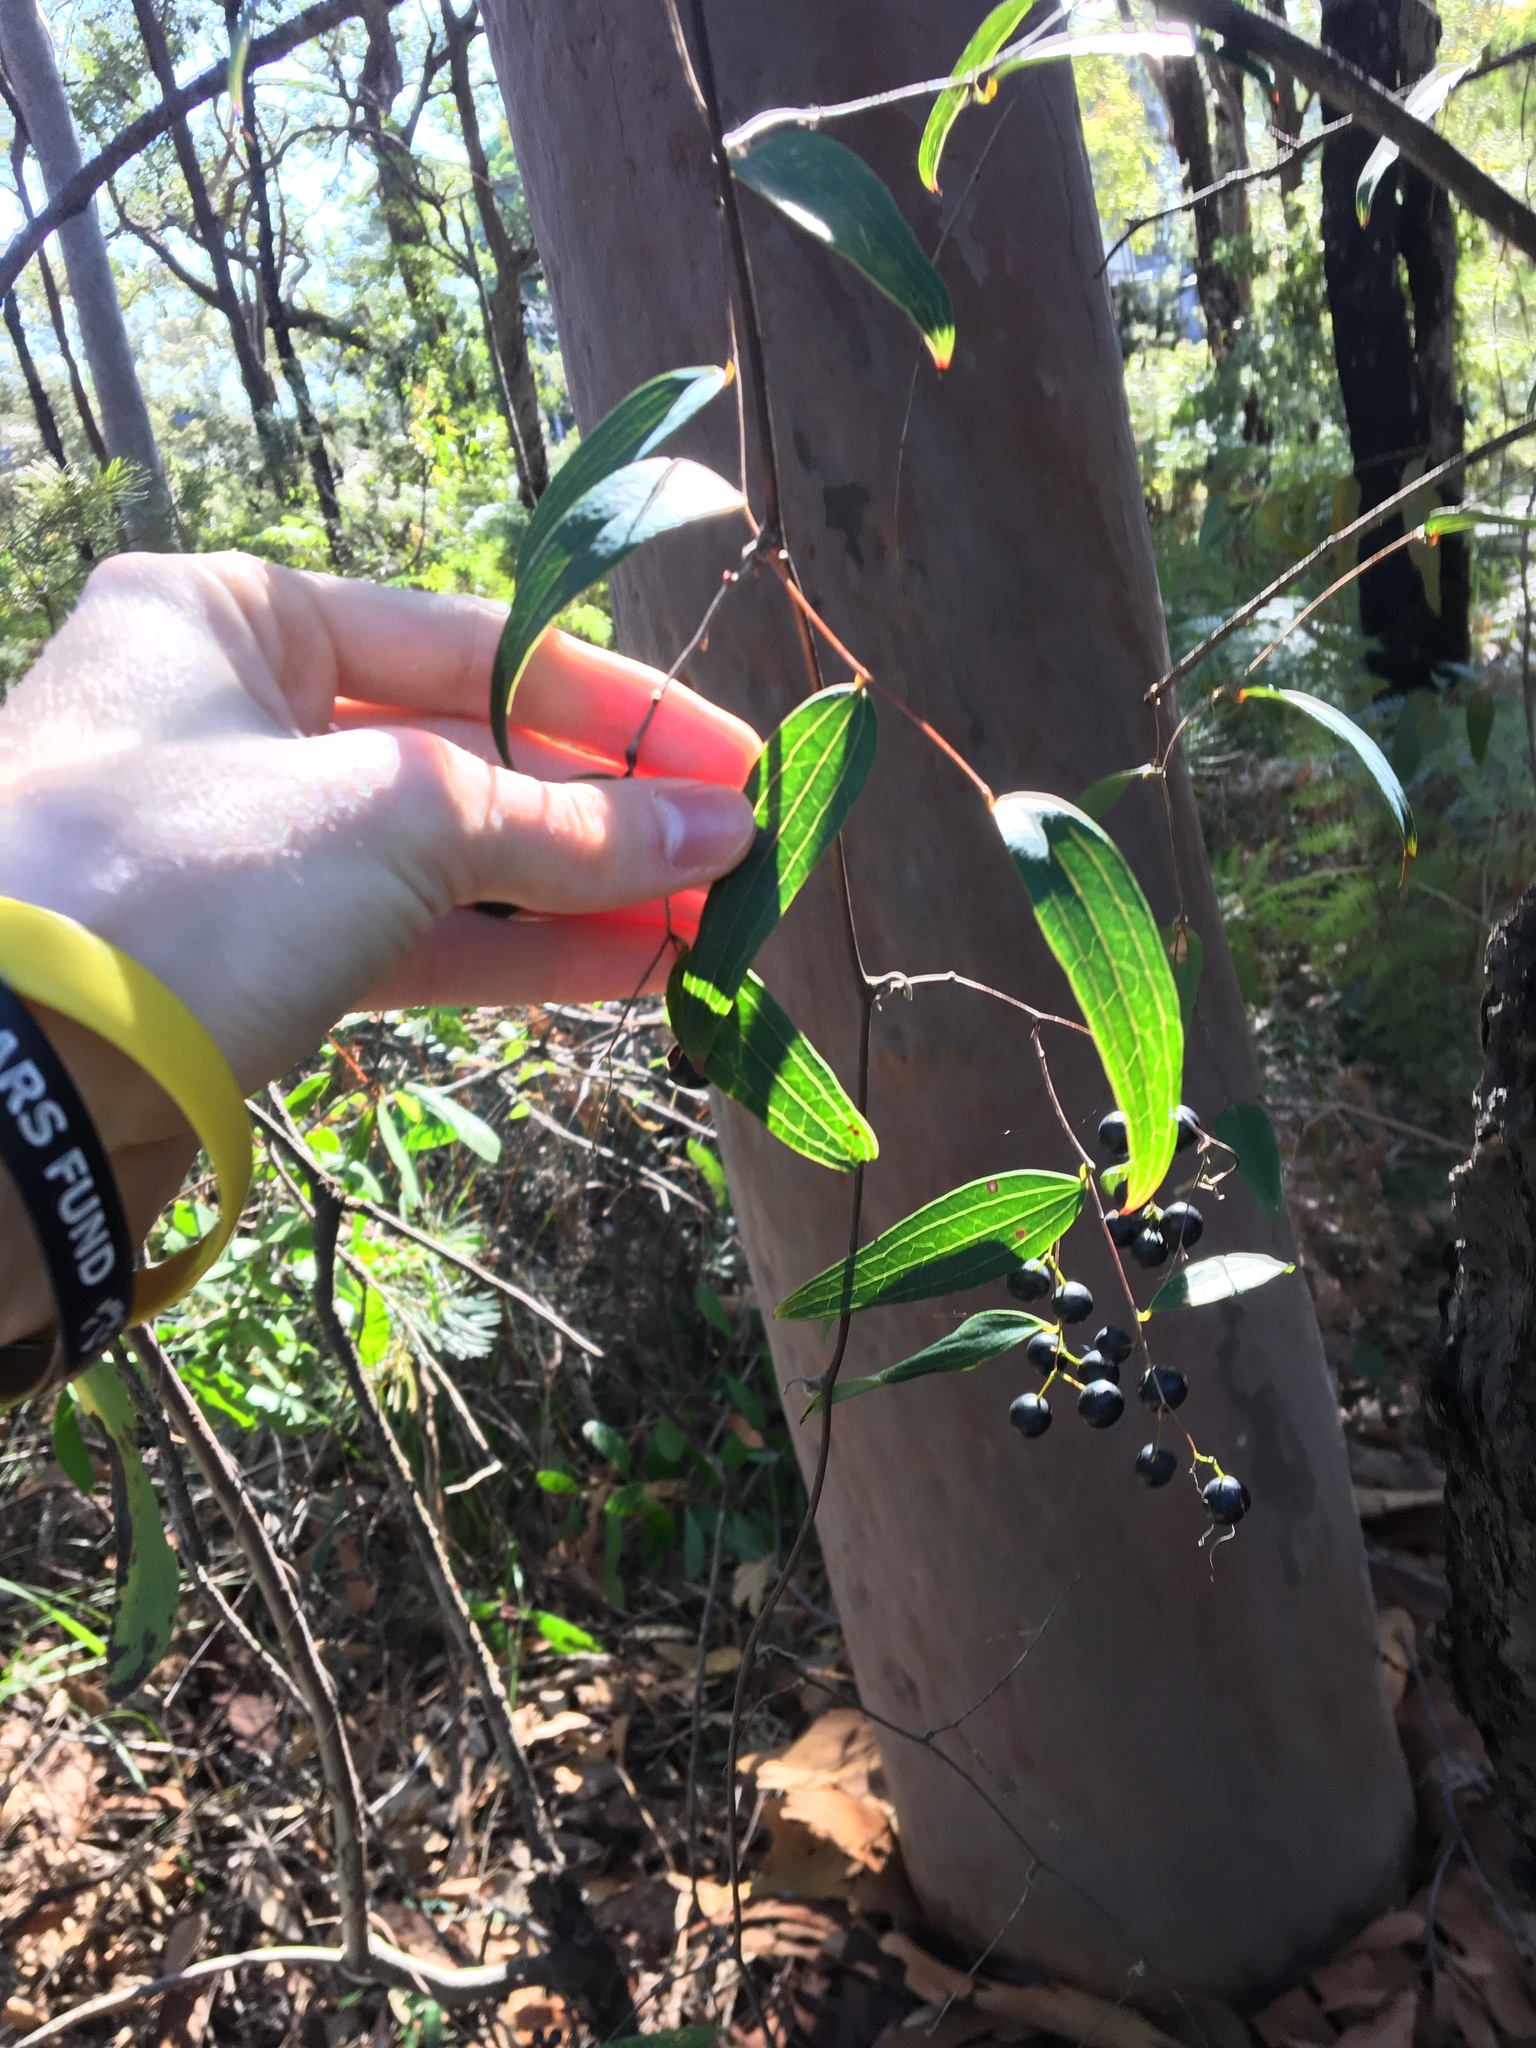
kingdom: Plantae
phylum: Tracheophyta
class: Liliopsida
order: Liliales
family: Smilacaceae
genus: Smilax
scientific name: Smilax glyciphylla
